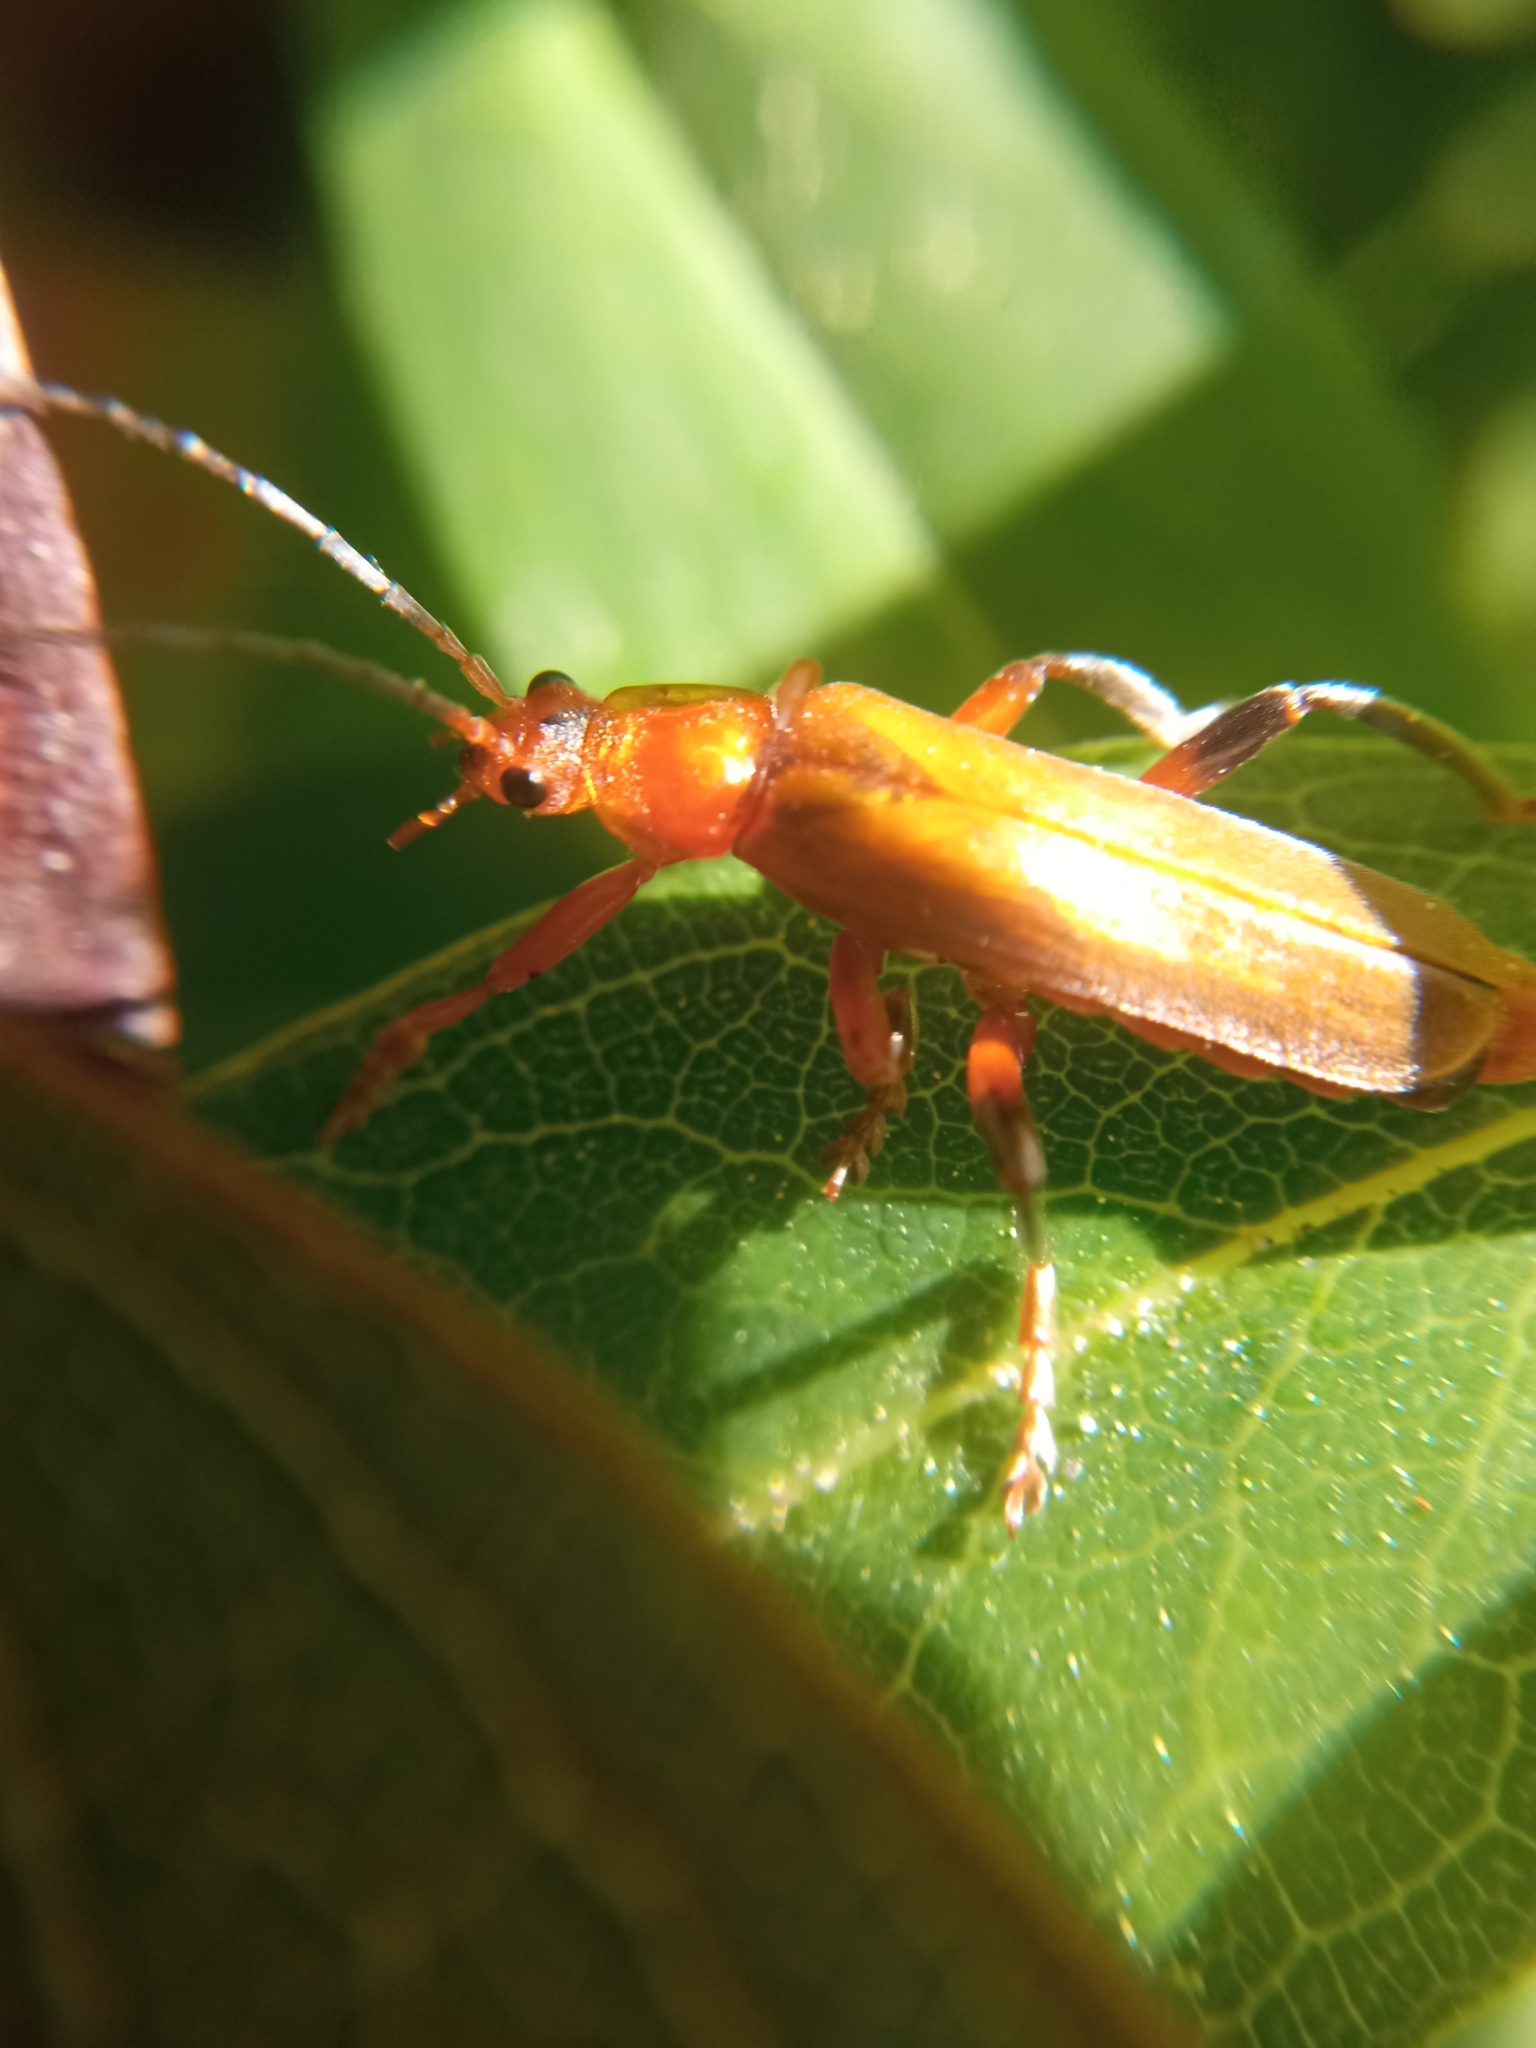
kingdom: Animalia
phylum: Arthropoda
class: Insecta
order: Coleoptera
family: Cantharidae
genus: Cantharis
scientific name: Cantharis livida
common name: Livid soldier beetle
